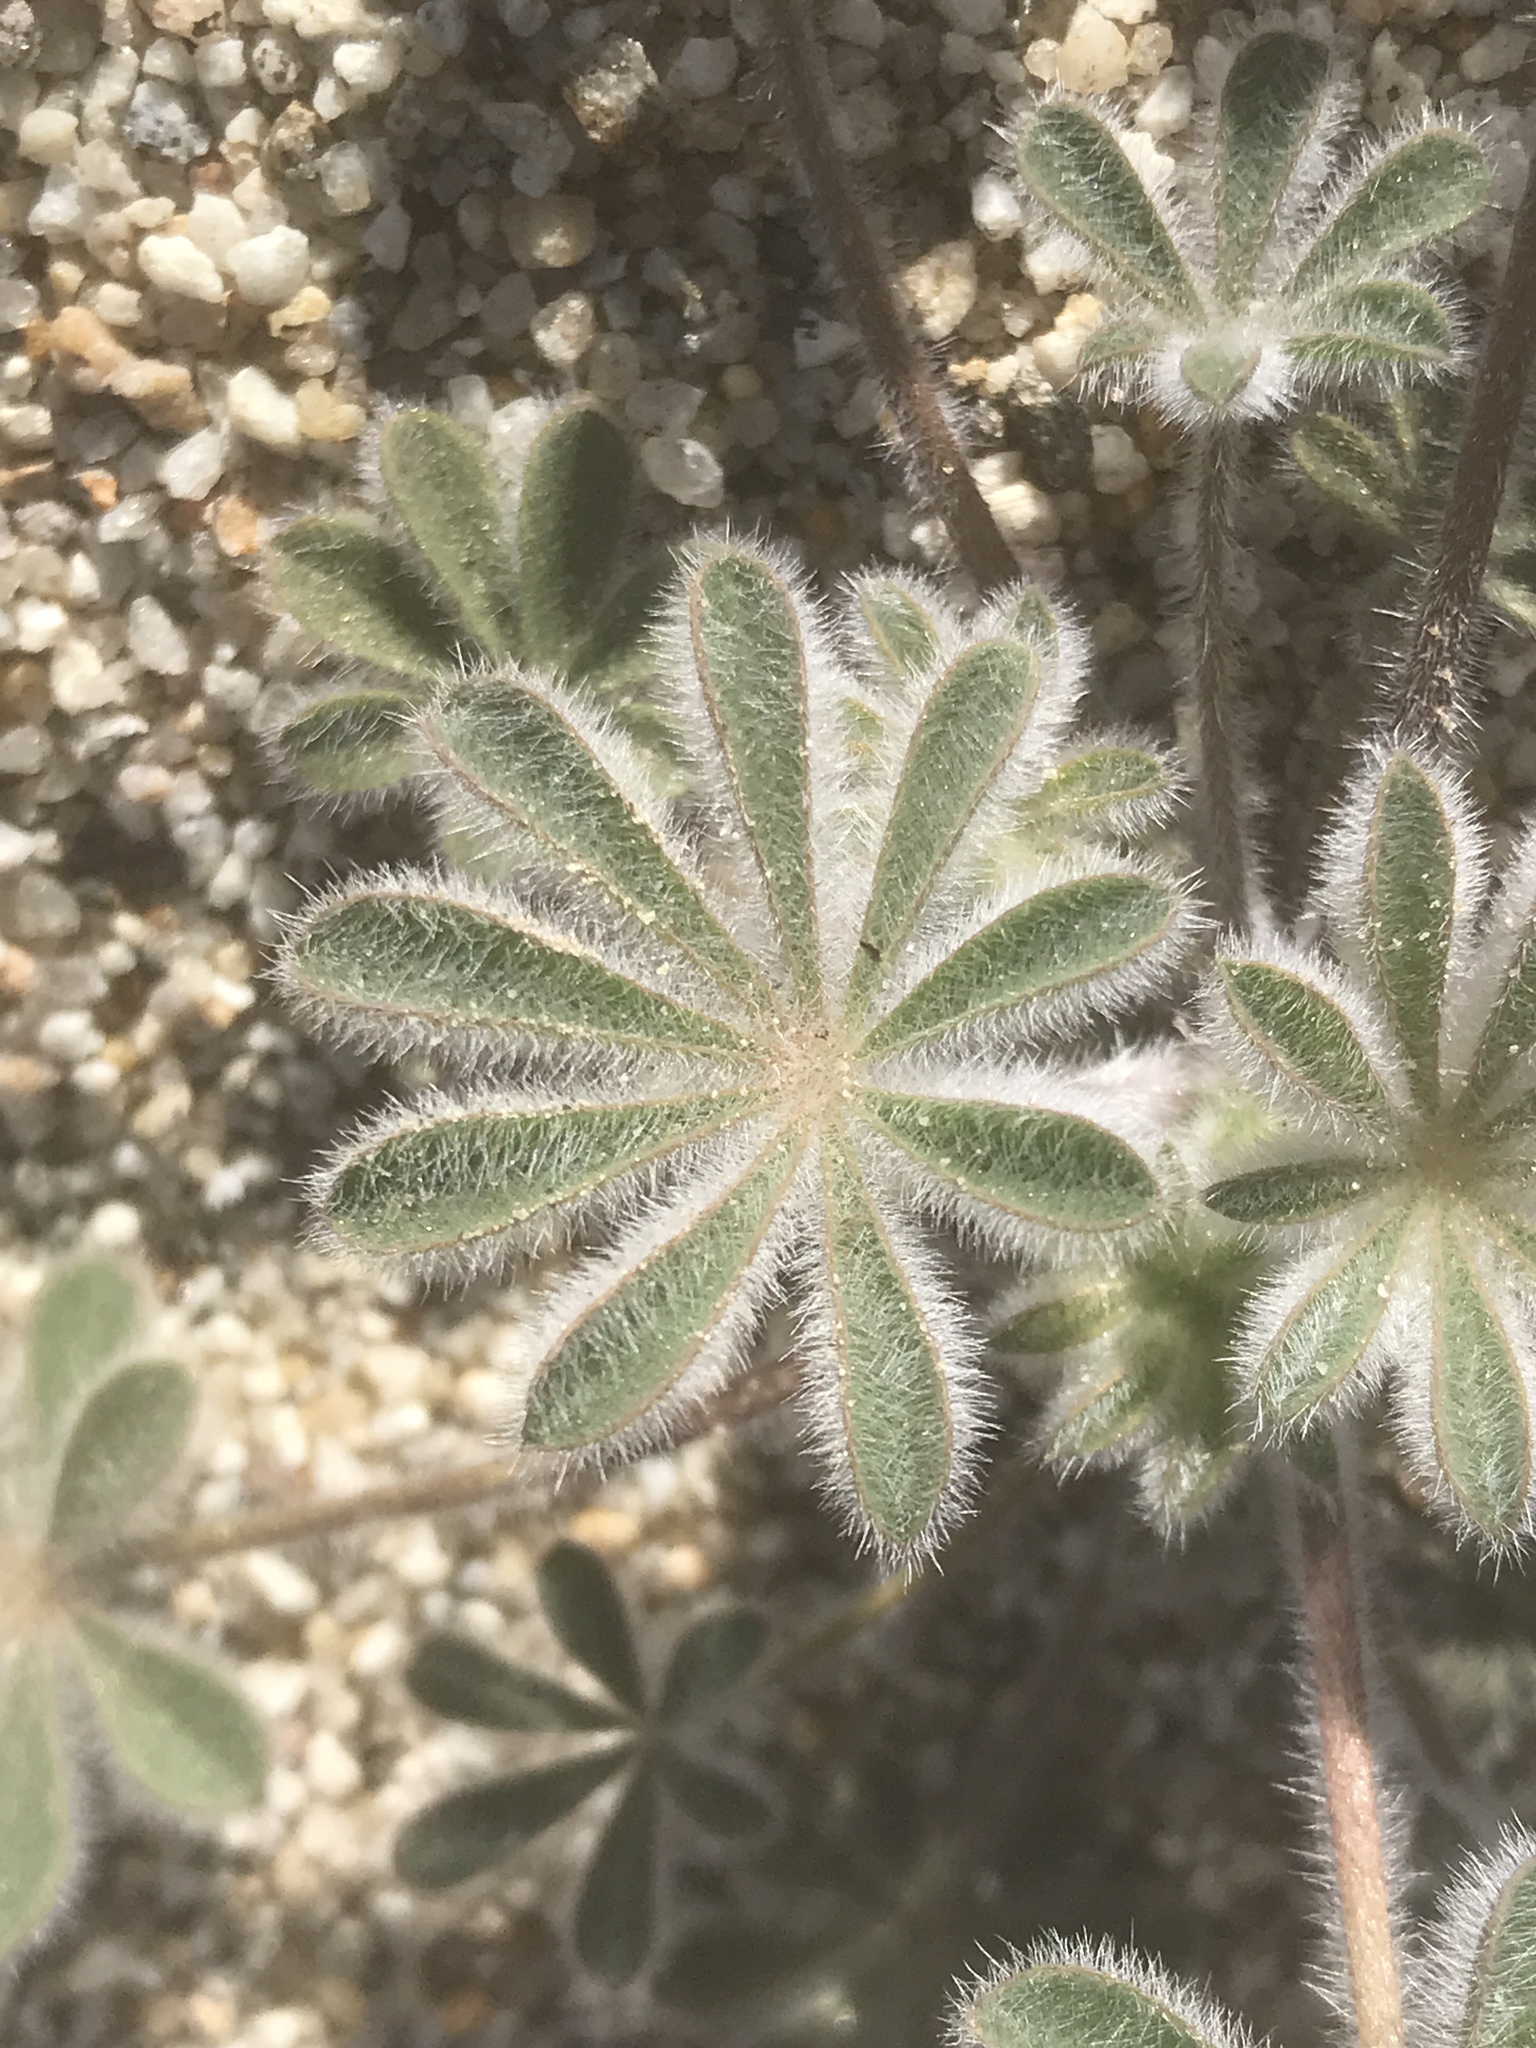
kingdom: Plantae
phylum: Tracheophyta
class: Magnoliopsida
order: Fabales
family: Fabaceae
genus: Lupinus
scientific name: Lupinus concinnus
